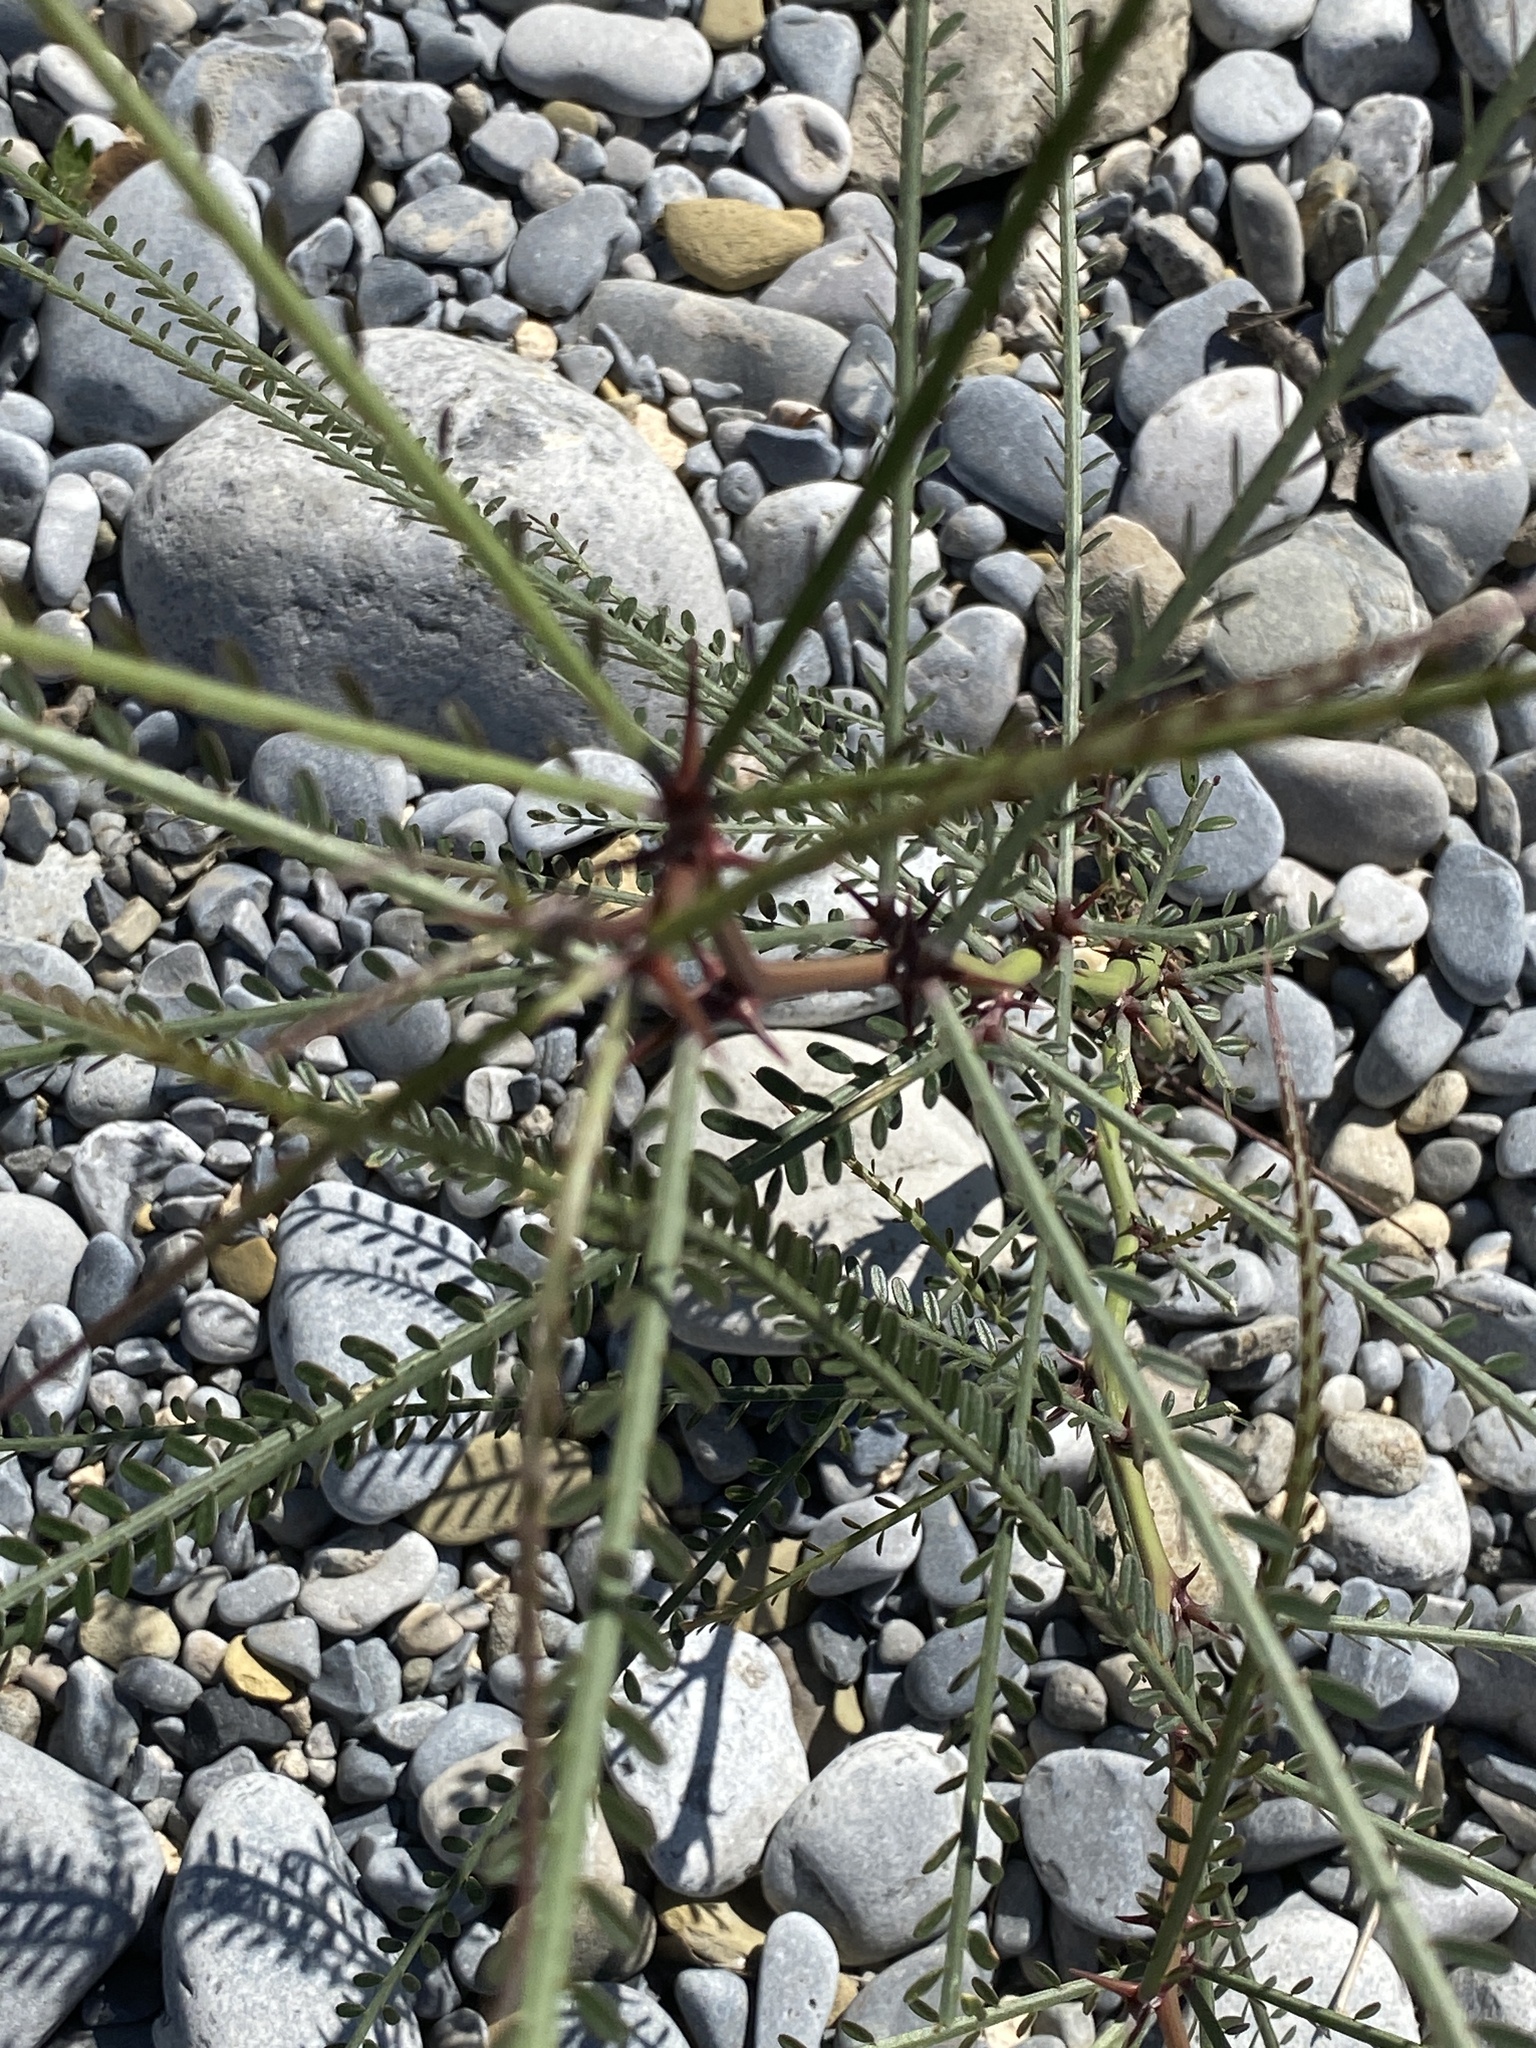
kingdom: Plantae
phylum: Tracheophyta
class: Magnoliopsida
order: Fabales
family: Fabaceae
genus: Parkinsonia
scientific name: Parkinsonia aculeata
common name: Jerusalem thorn
